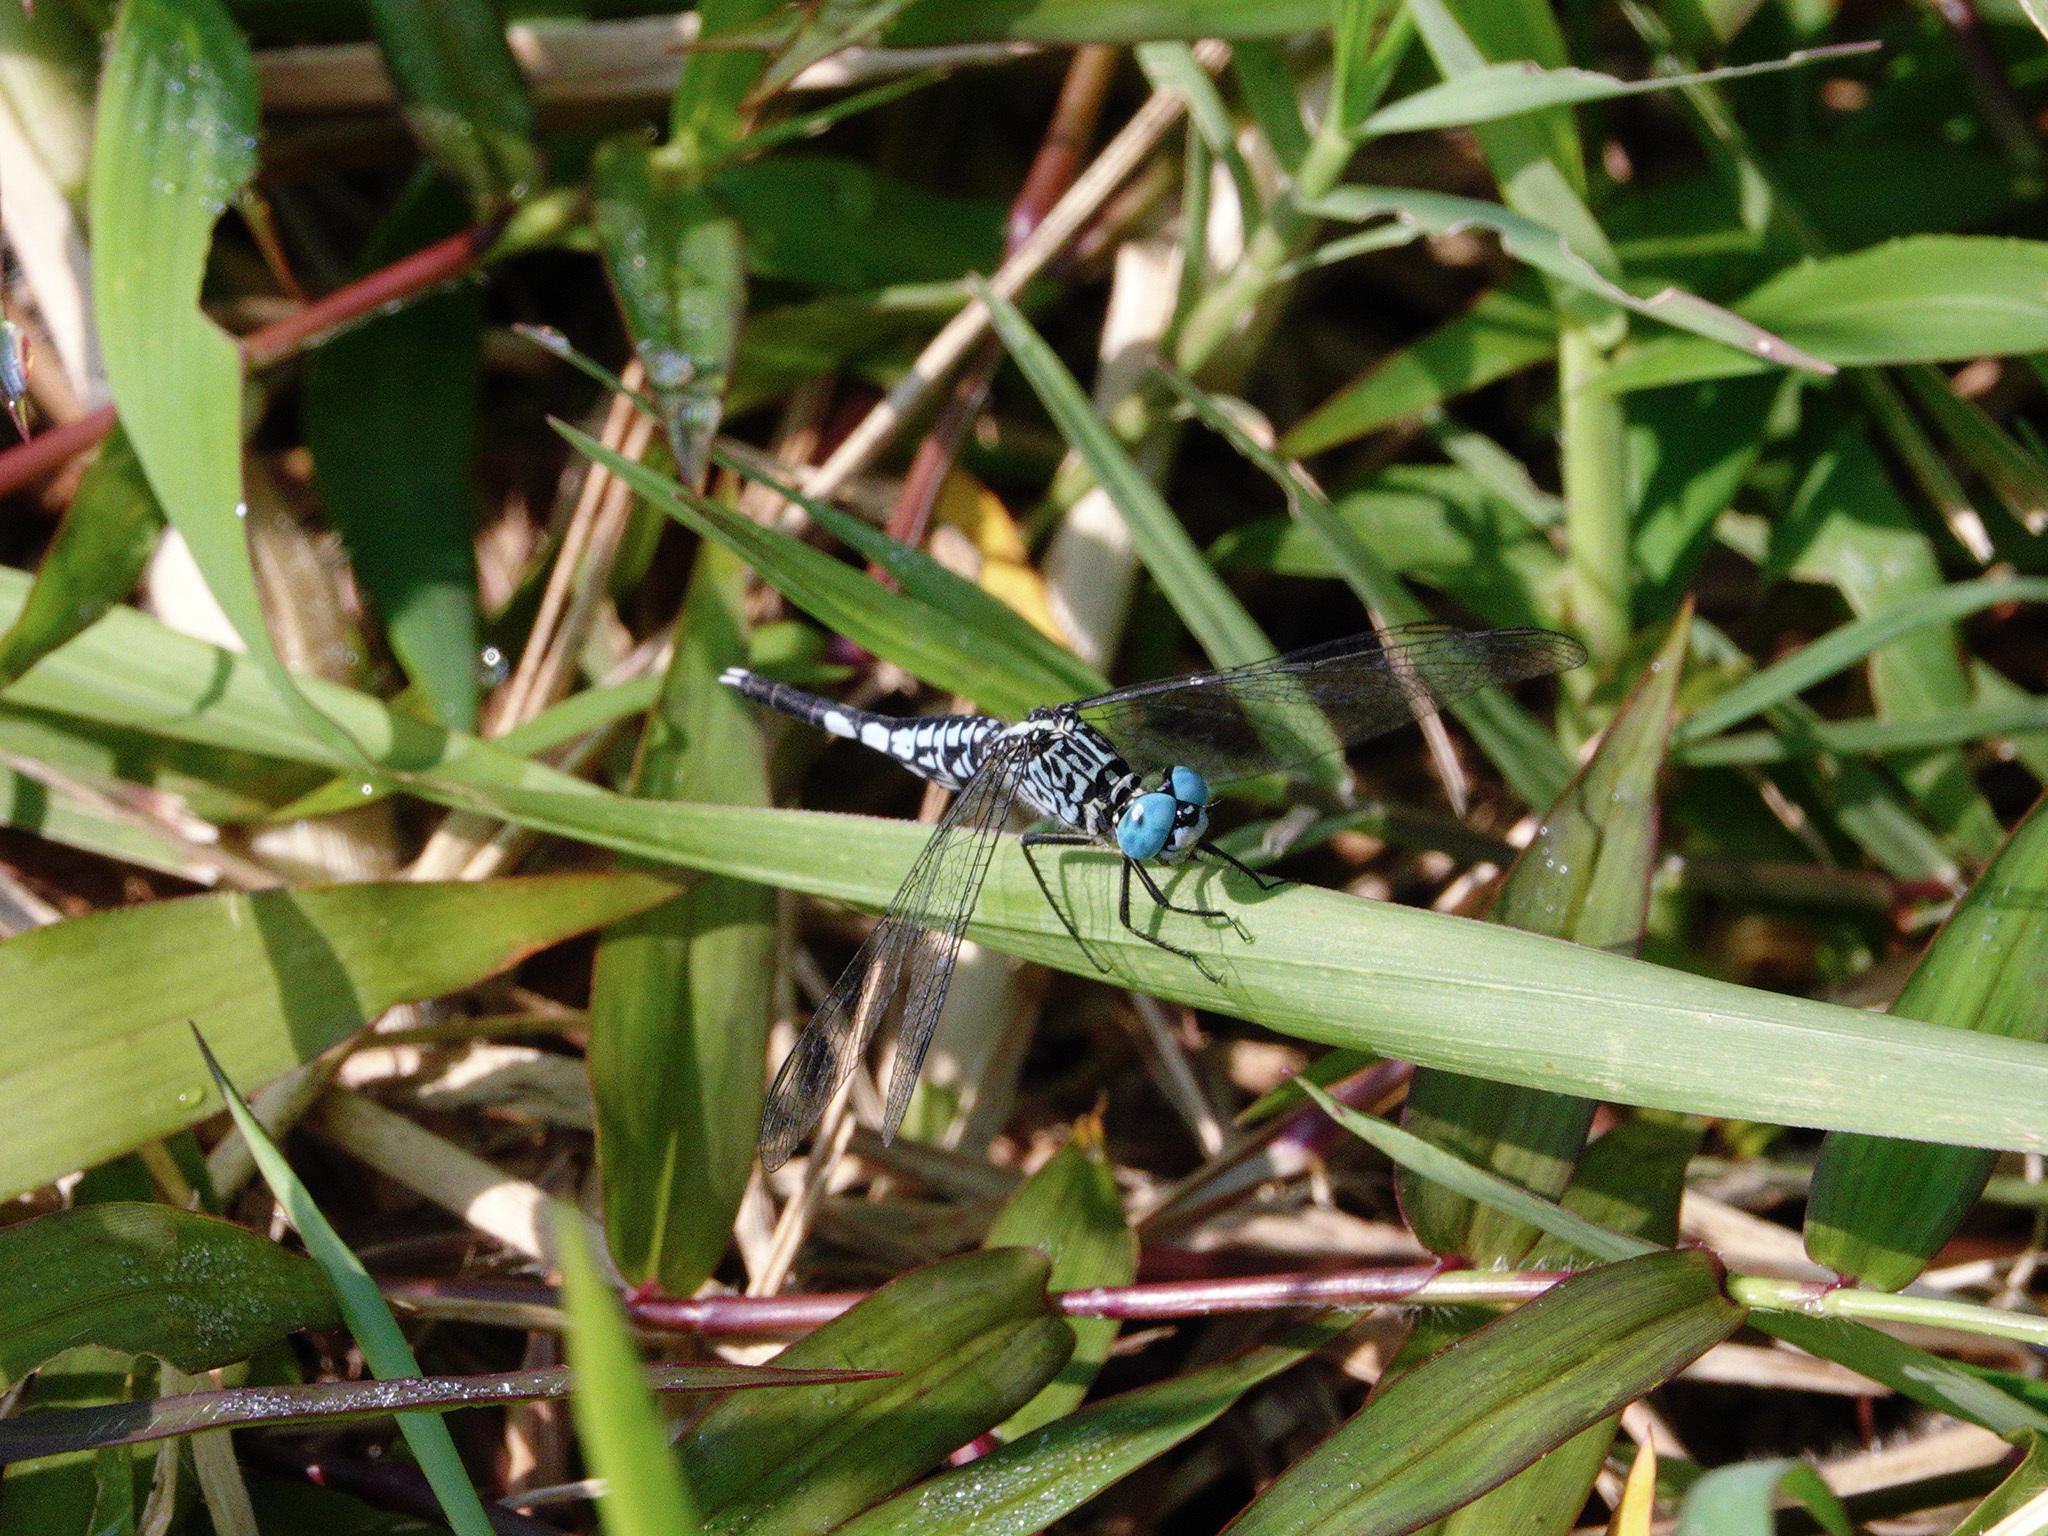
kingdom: Animalia
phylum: Arthropoda
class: Insecta
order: Odonata
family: Libellulidae
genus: Acisoma
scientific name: Acisoma panorpoides
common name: Asian pintail
